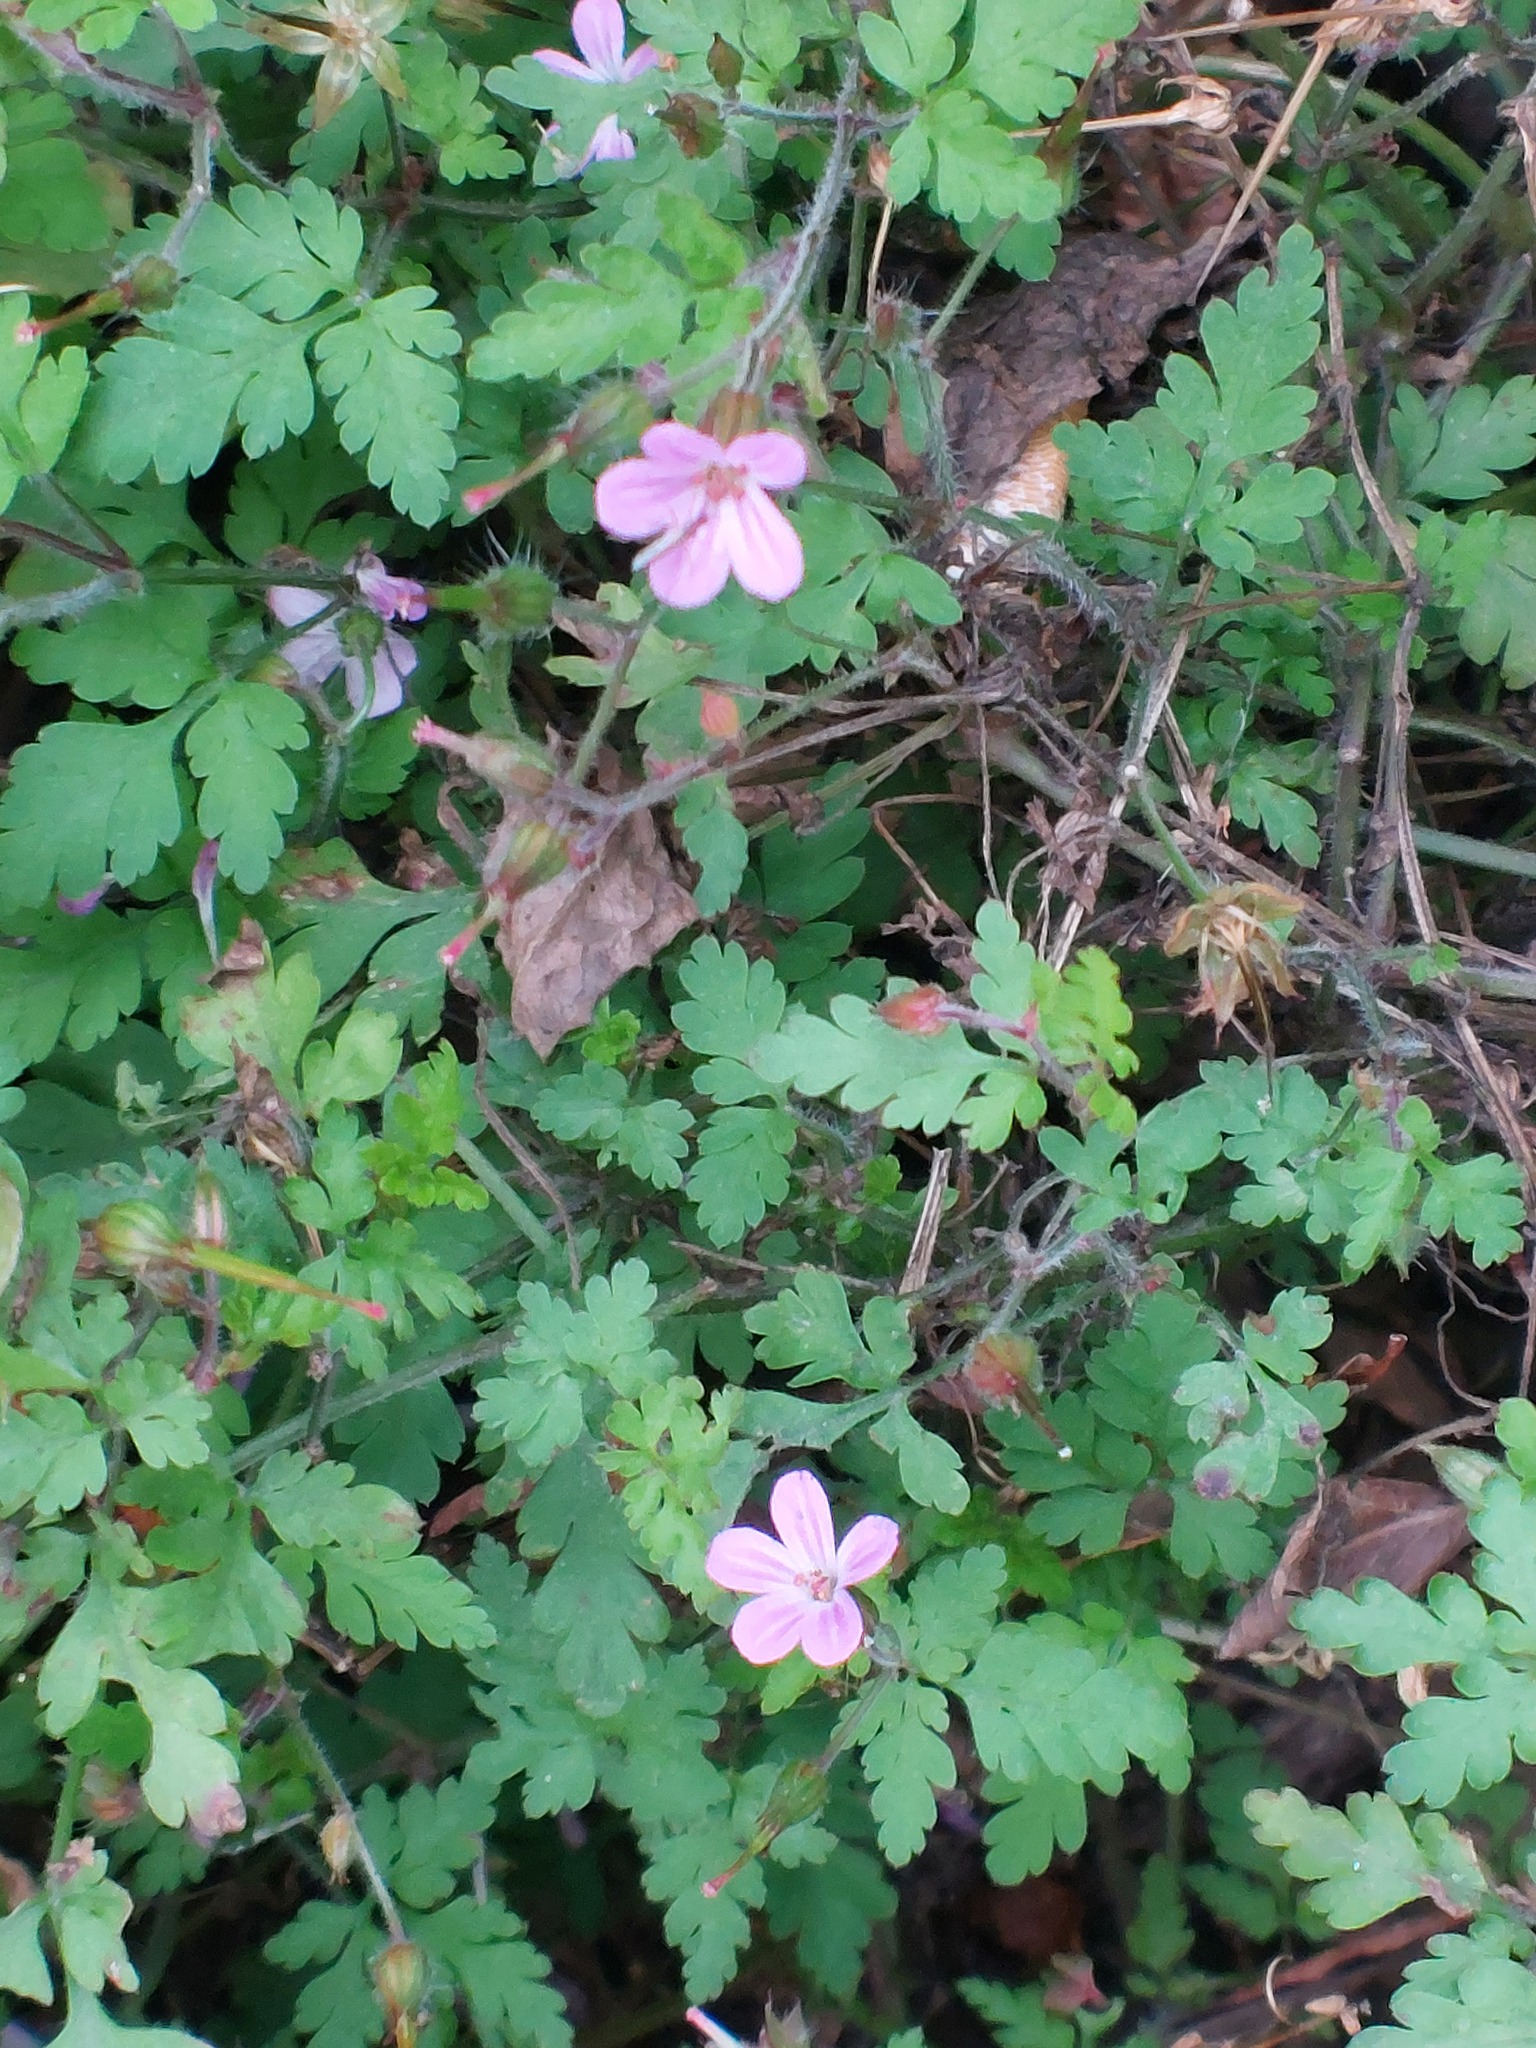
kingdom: Plantae
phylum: Tracheophyta
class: Magnoliopsida
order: Geraniales
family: Geraniaceae
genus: Geranium
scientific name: Geranium robertianum
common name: Herb-robert
